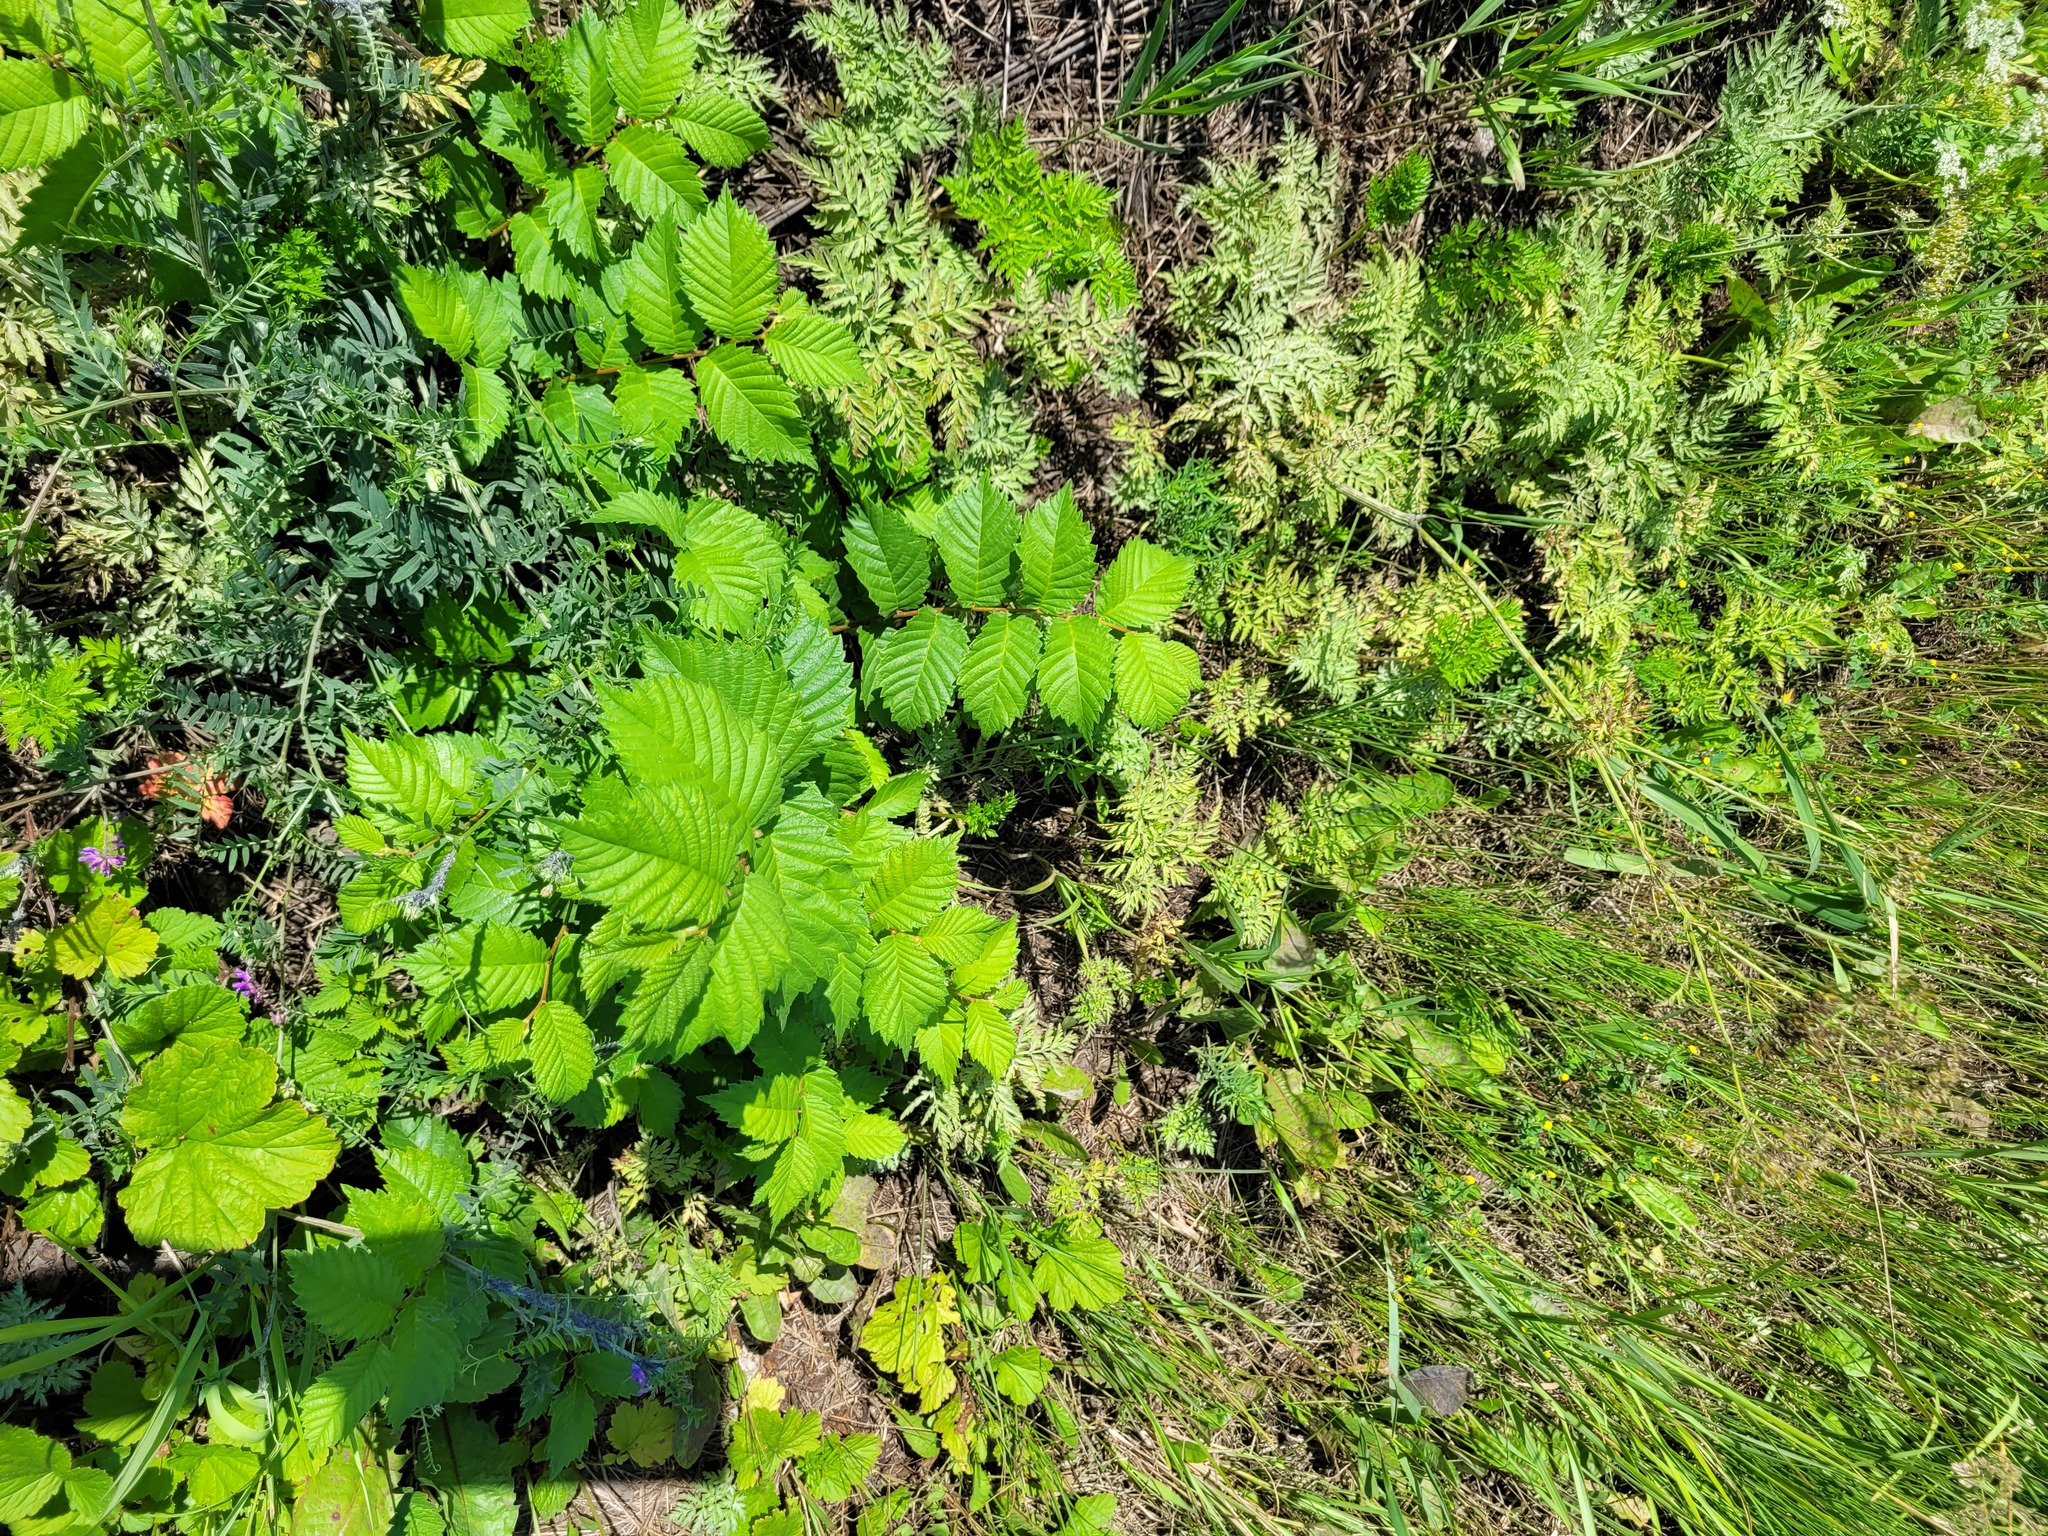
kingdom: Plantae
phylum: Tracheophyta
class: Magnoliopsida
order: Rosales
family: Ulmaceae
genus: Ulmus
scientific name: Ulmus laevis
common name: European white-elm
